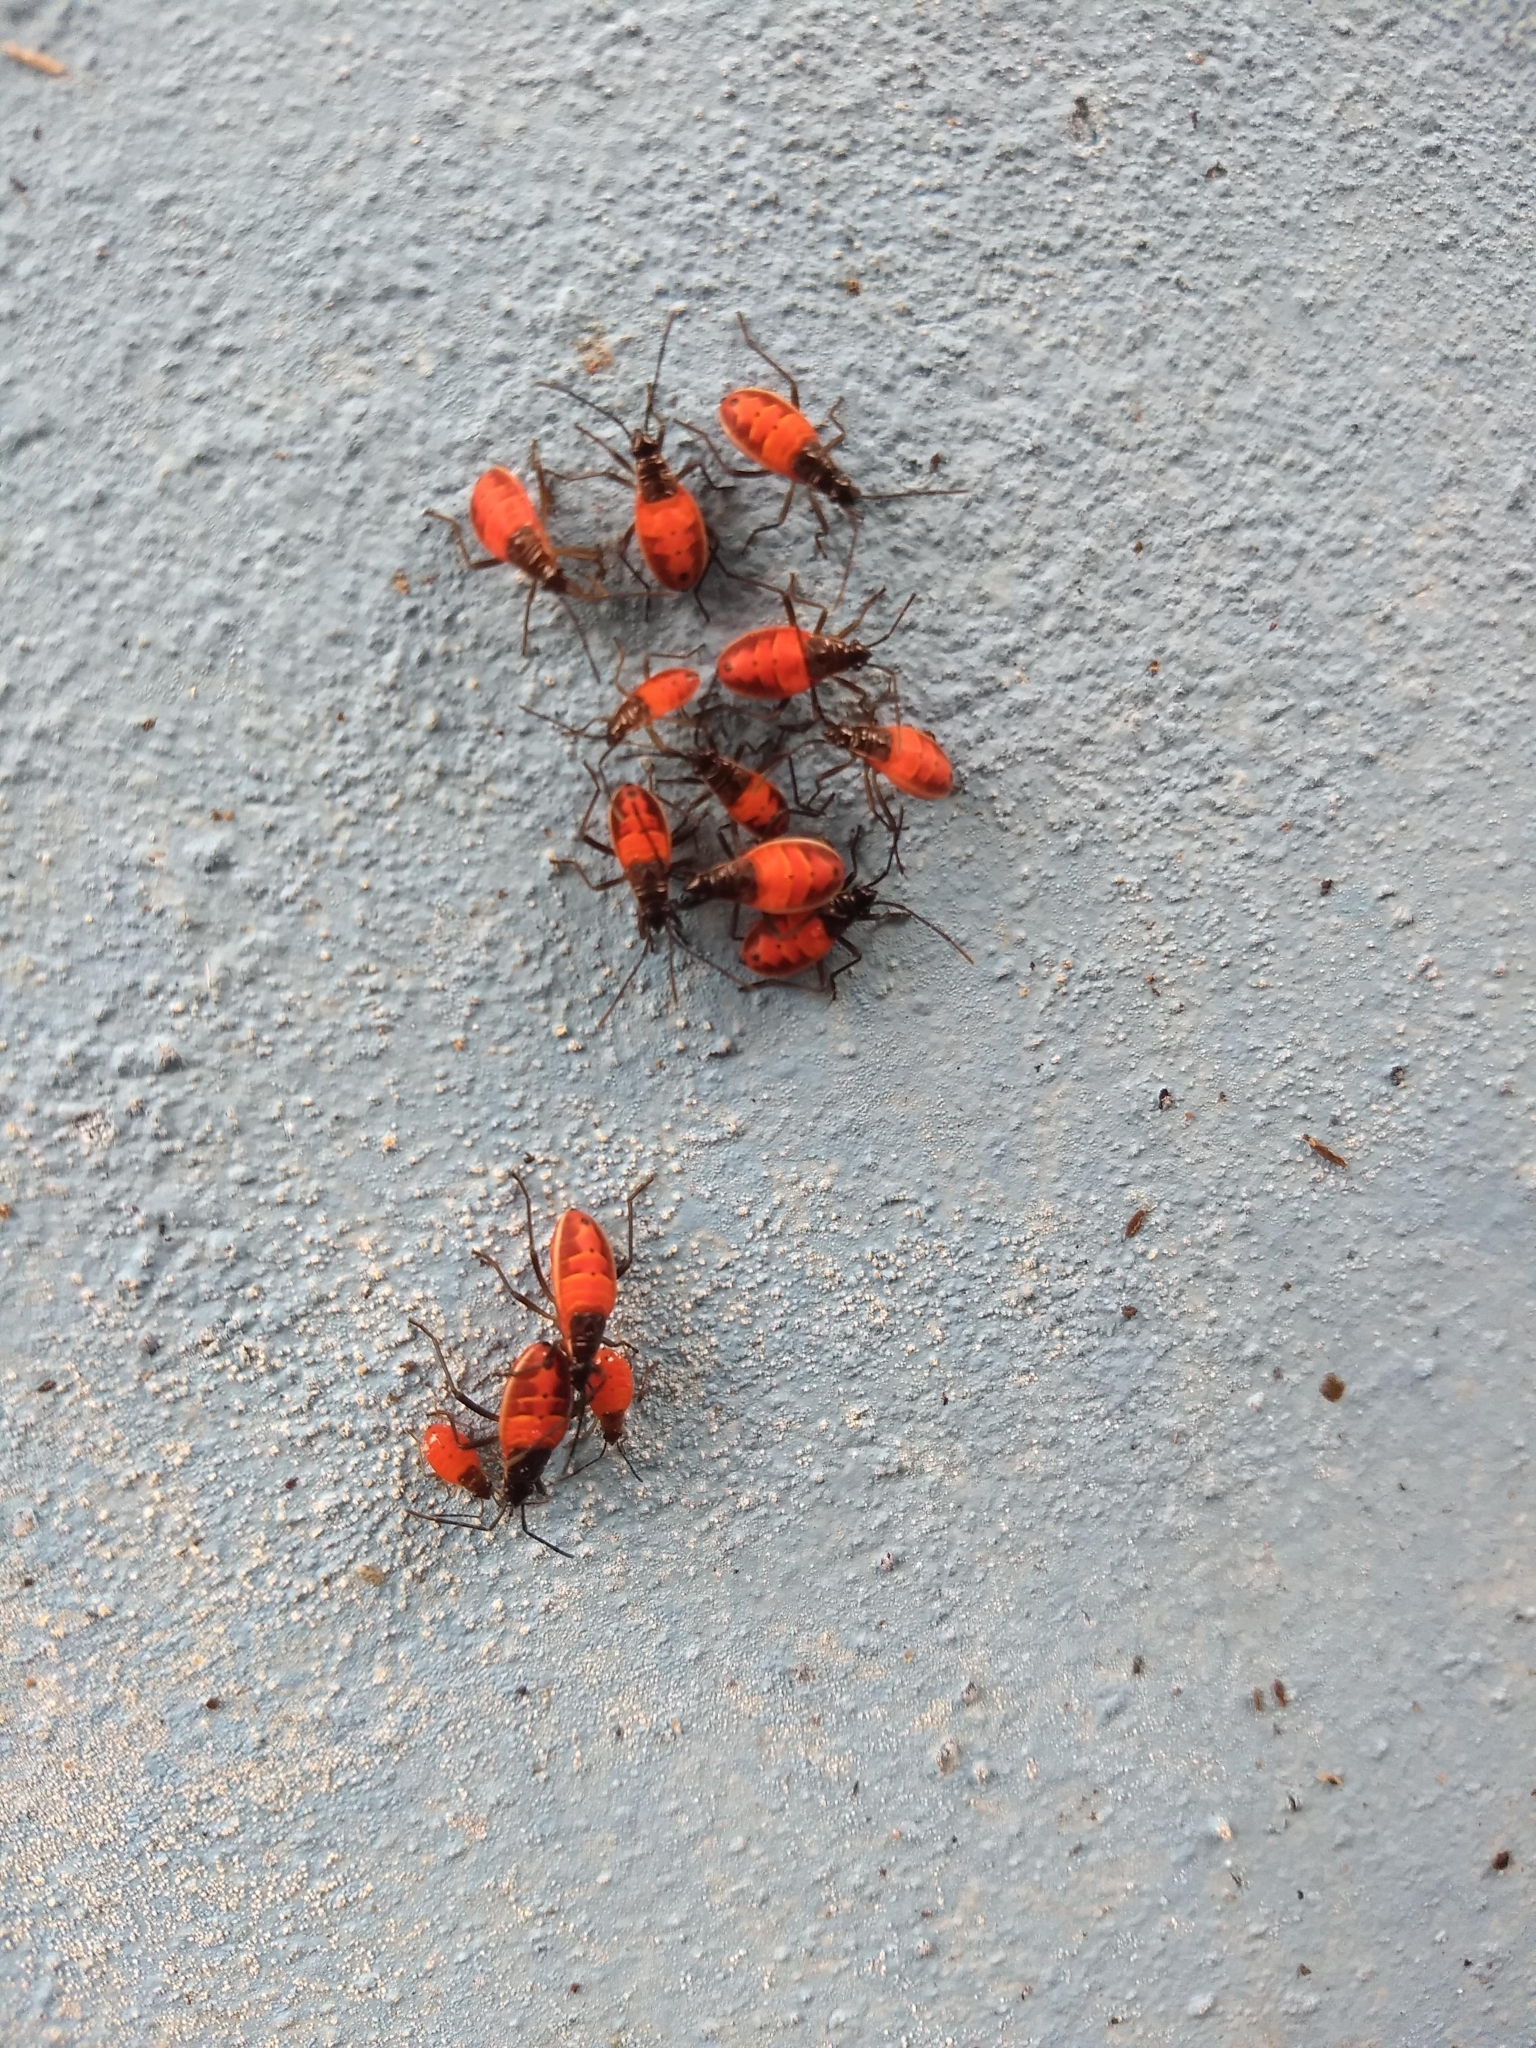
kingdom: Animalia
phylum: Arthropoda
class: Insecta
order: Hemiptera
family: Pyrrhocoridae
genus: Melamphaus
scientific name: Melamphaus
